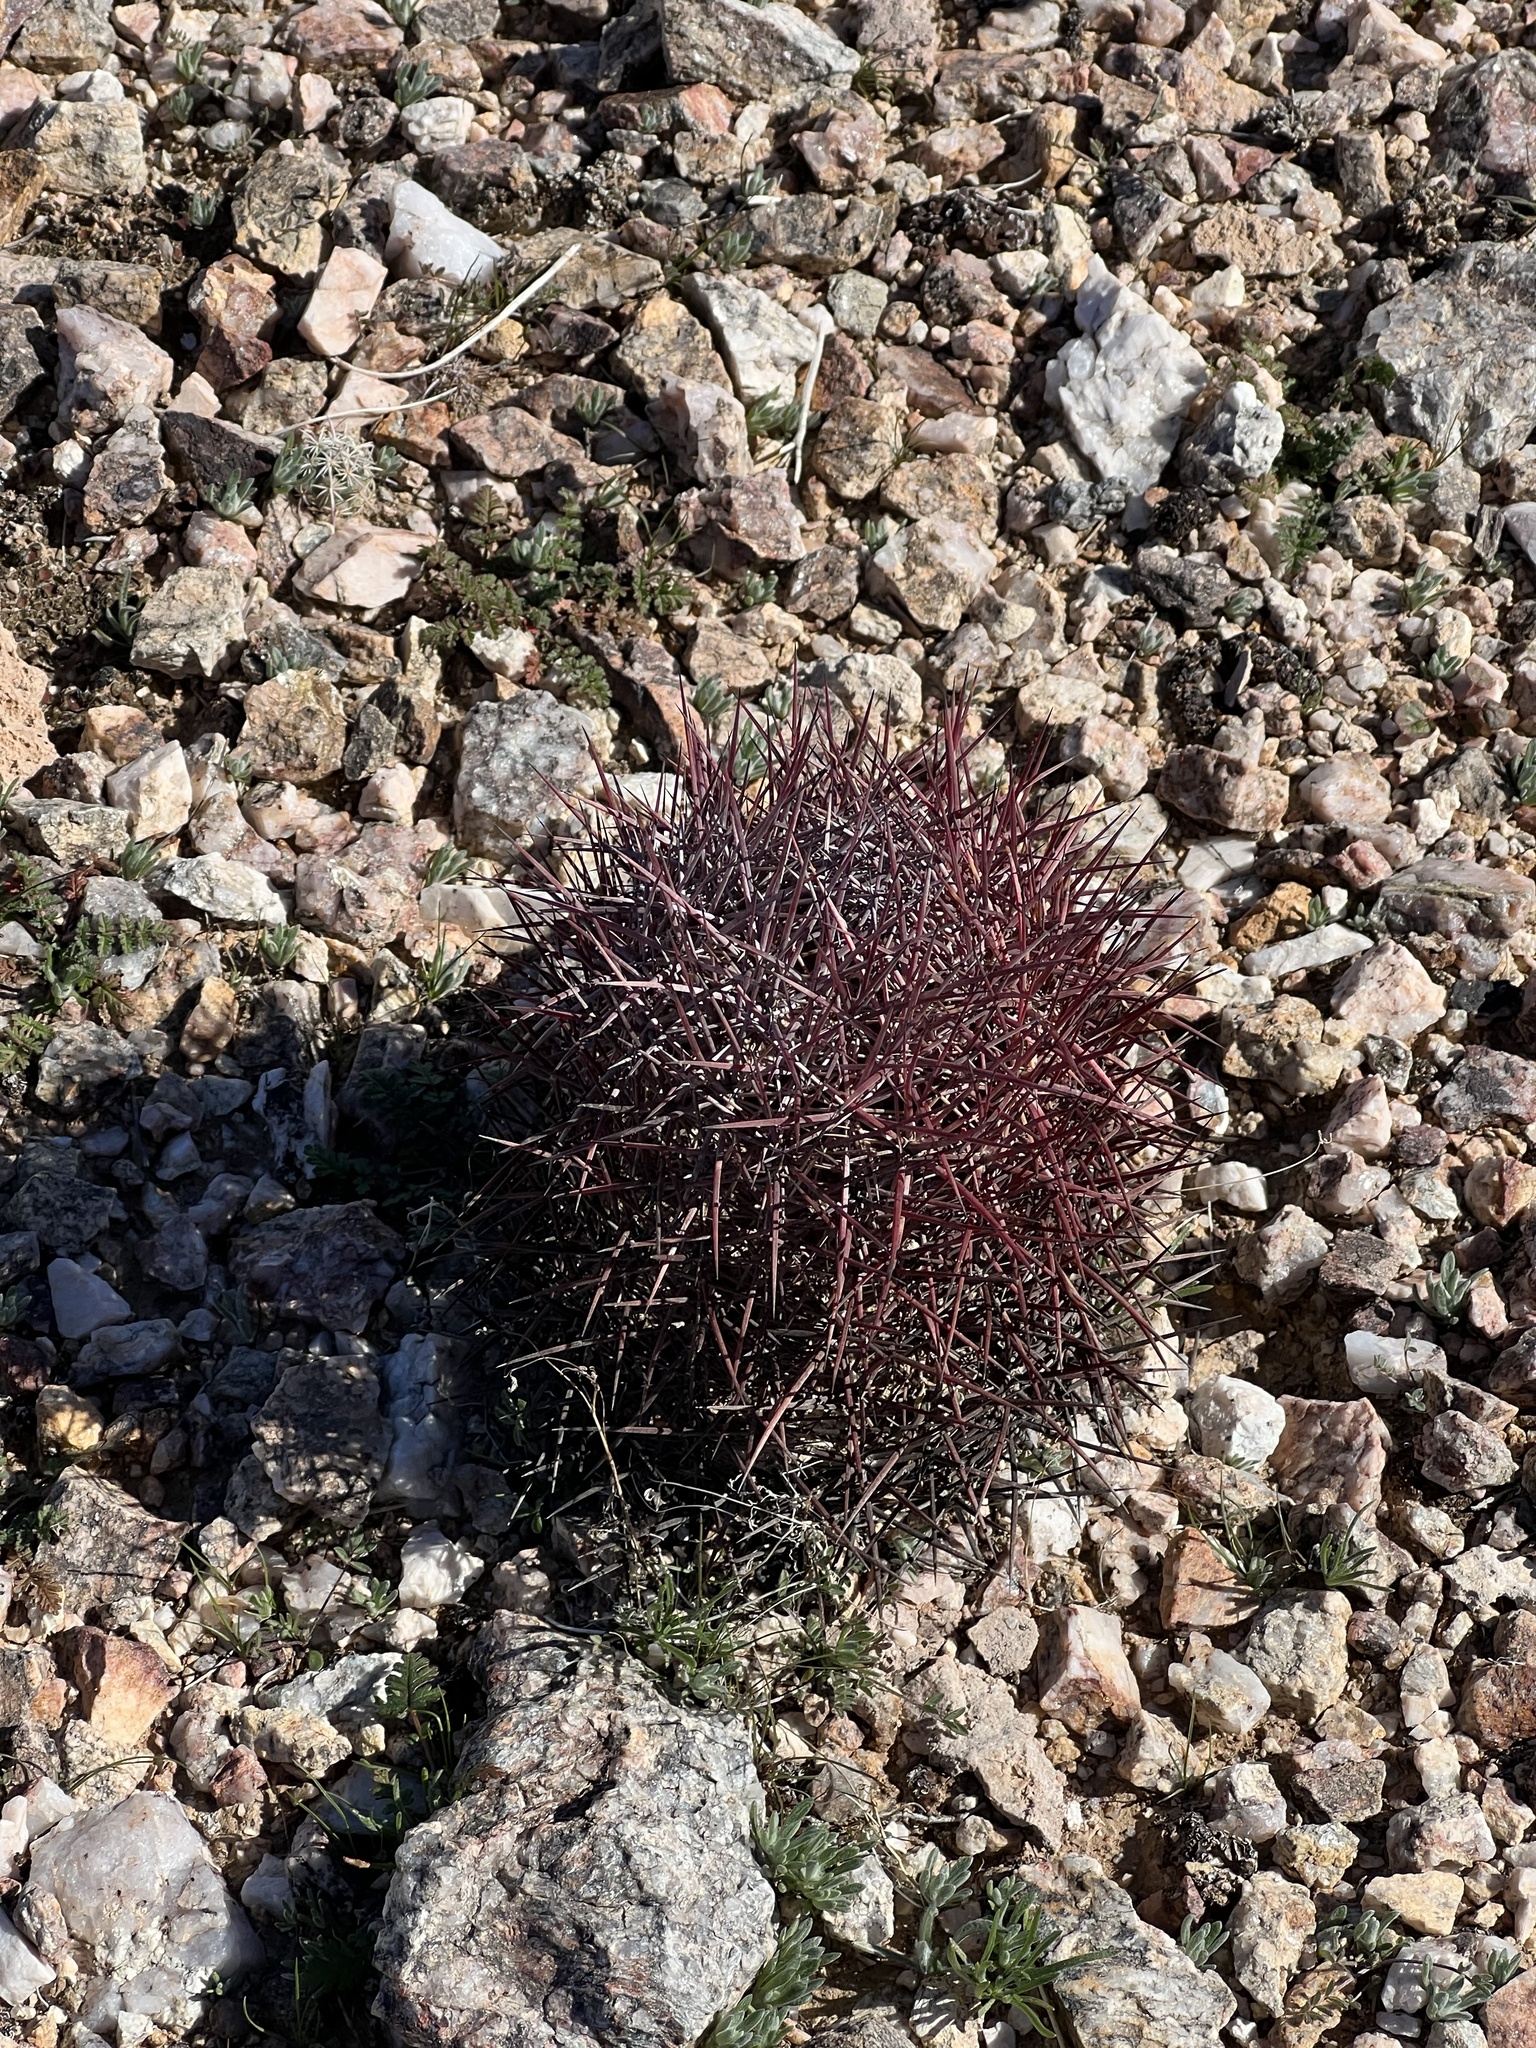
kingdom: Plantae
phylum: Tracheophyta
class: Magnoliopsida
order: Caryophyllales
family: Cactaceae
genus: Sclerocactus
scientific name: Sclerocactus johnsonii
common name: Eight-spine fishhook cactus
